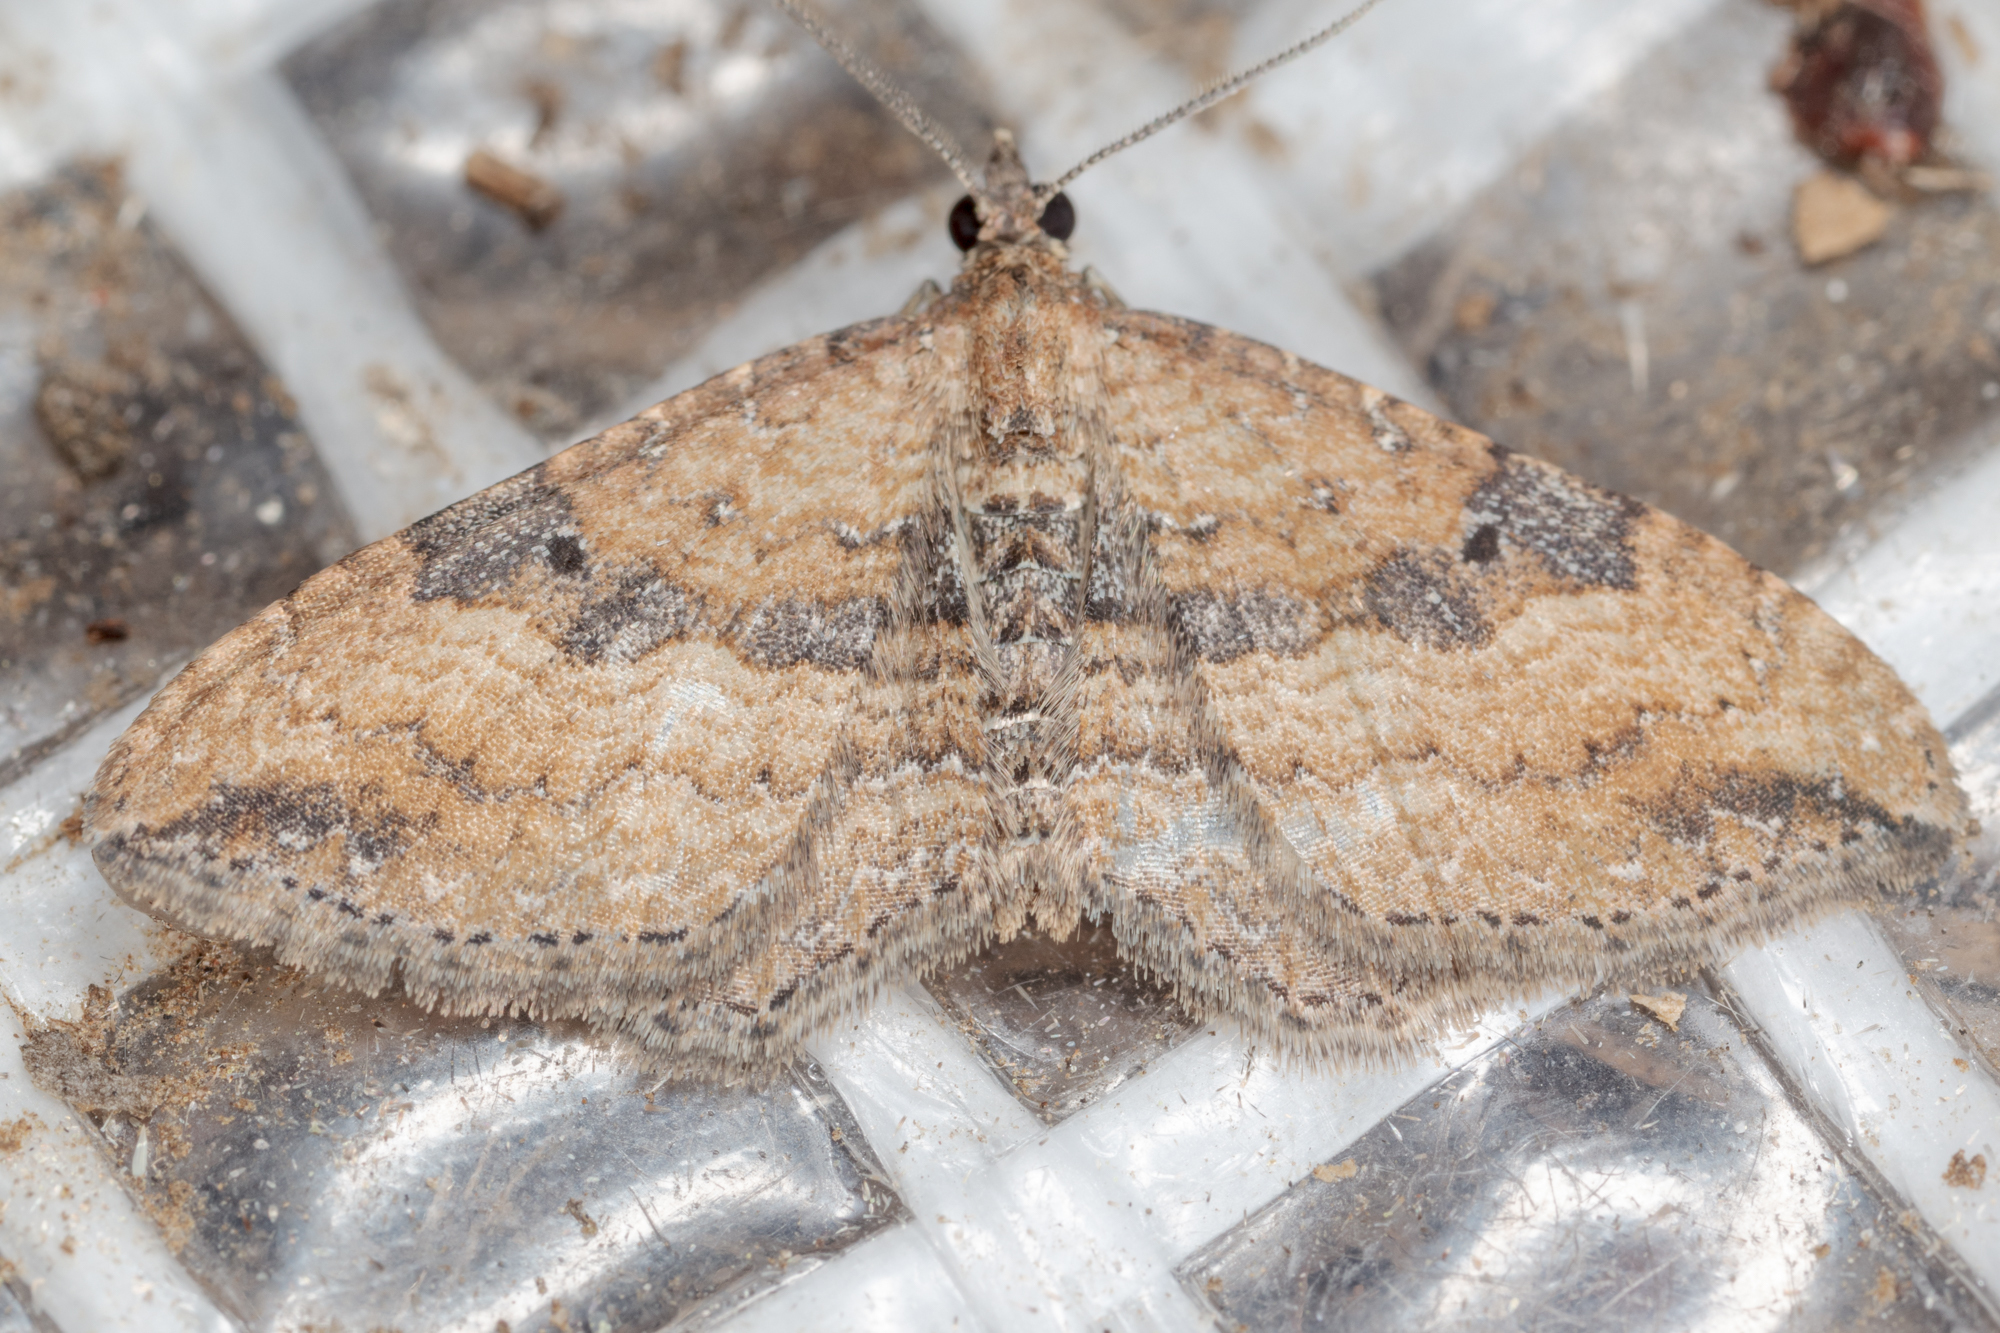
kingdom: Animalia
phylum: Arthropoda
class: Insecta
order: Lepidoptera
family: Geometridae
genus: Orthonama
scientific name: Orthonama obstipata
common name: The gem
